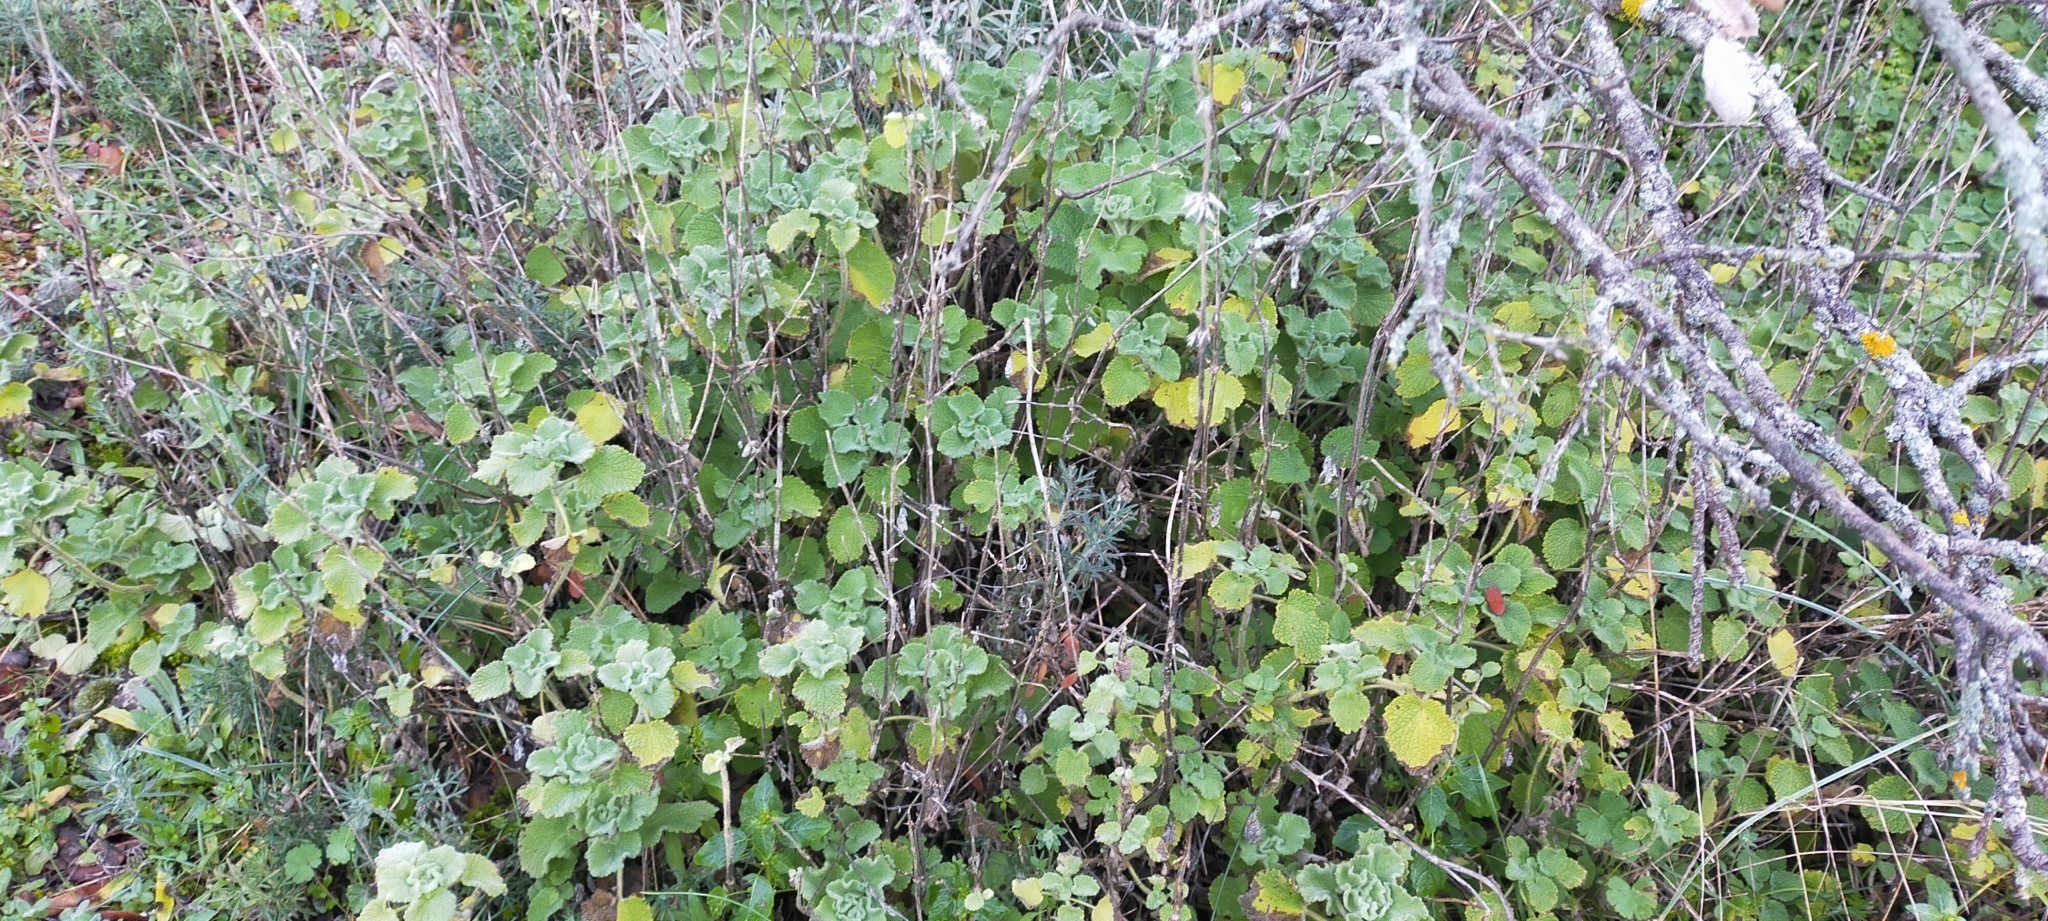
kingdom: Plantae
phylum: Tracheophyta
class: Magnoliopsida
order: Lamiales
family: Lamiaceae
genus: Pseudodictamnus
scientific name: Pseudodictamnus hirsutus
